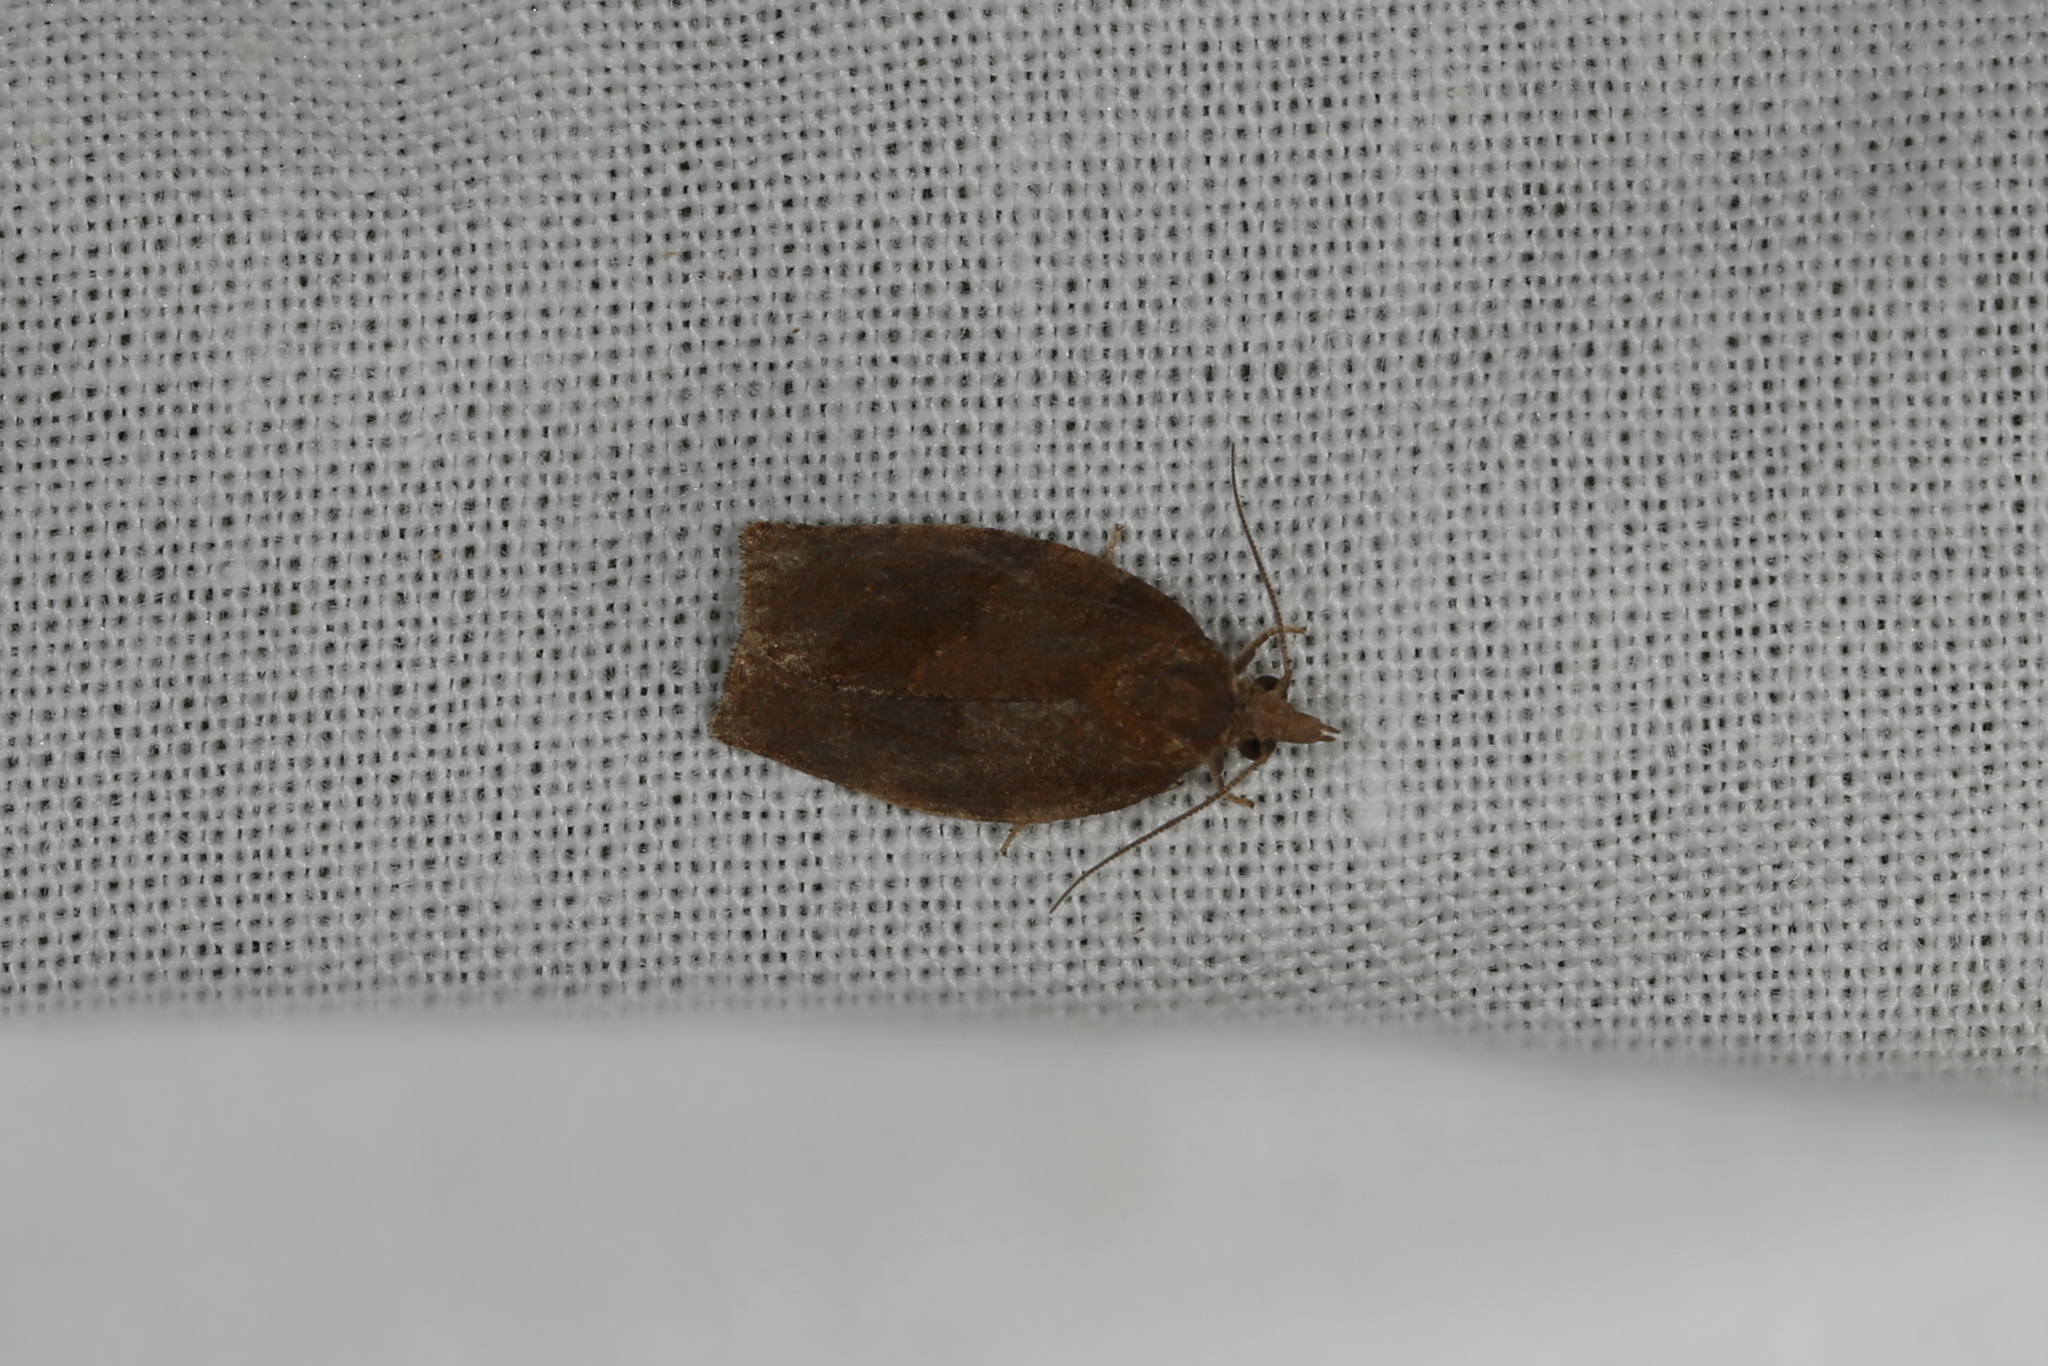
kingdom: Animalia
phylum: Arthropoda
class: Insecta
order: Lepidoptera
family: Tortricidae
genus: Pandemis
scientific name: Pandemis heparana
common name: Dark fruit-tree tortrix
